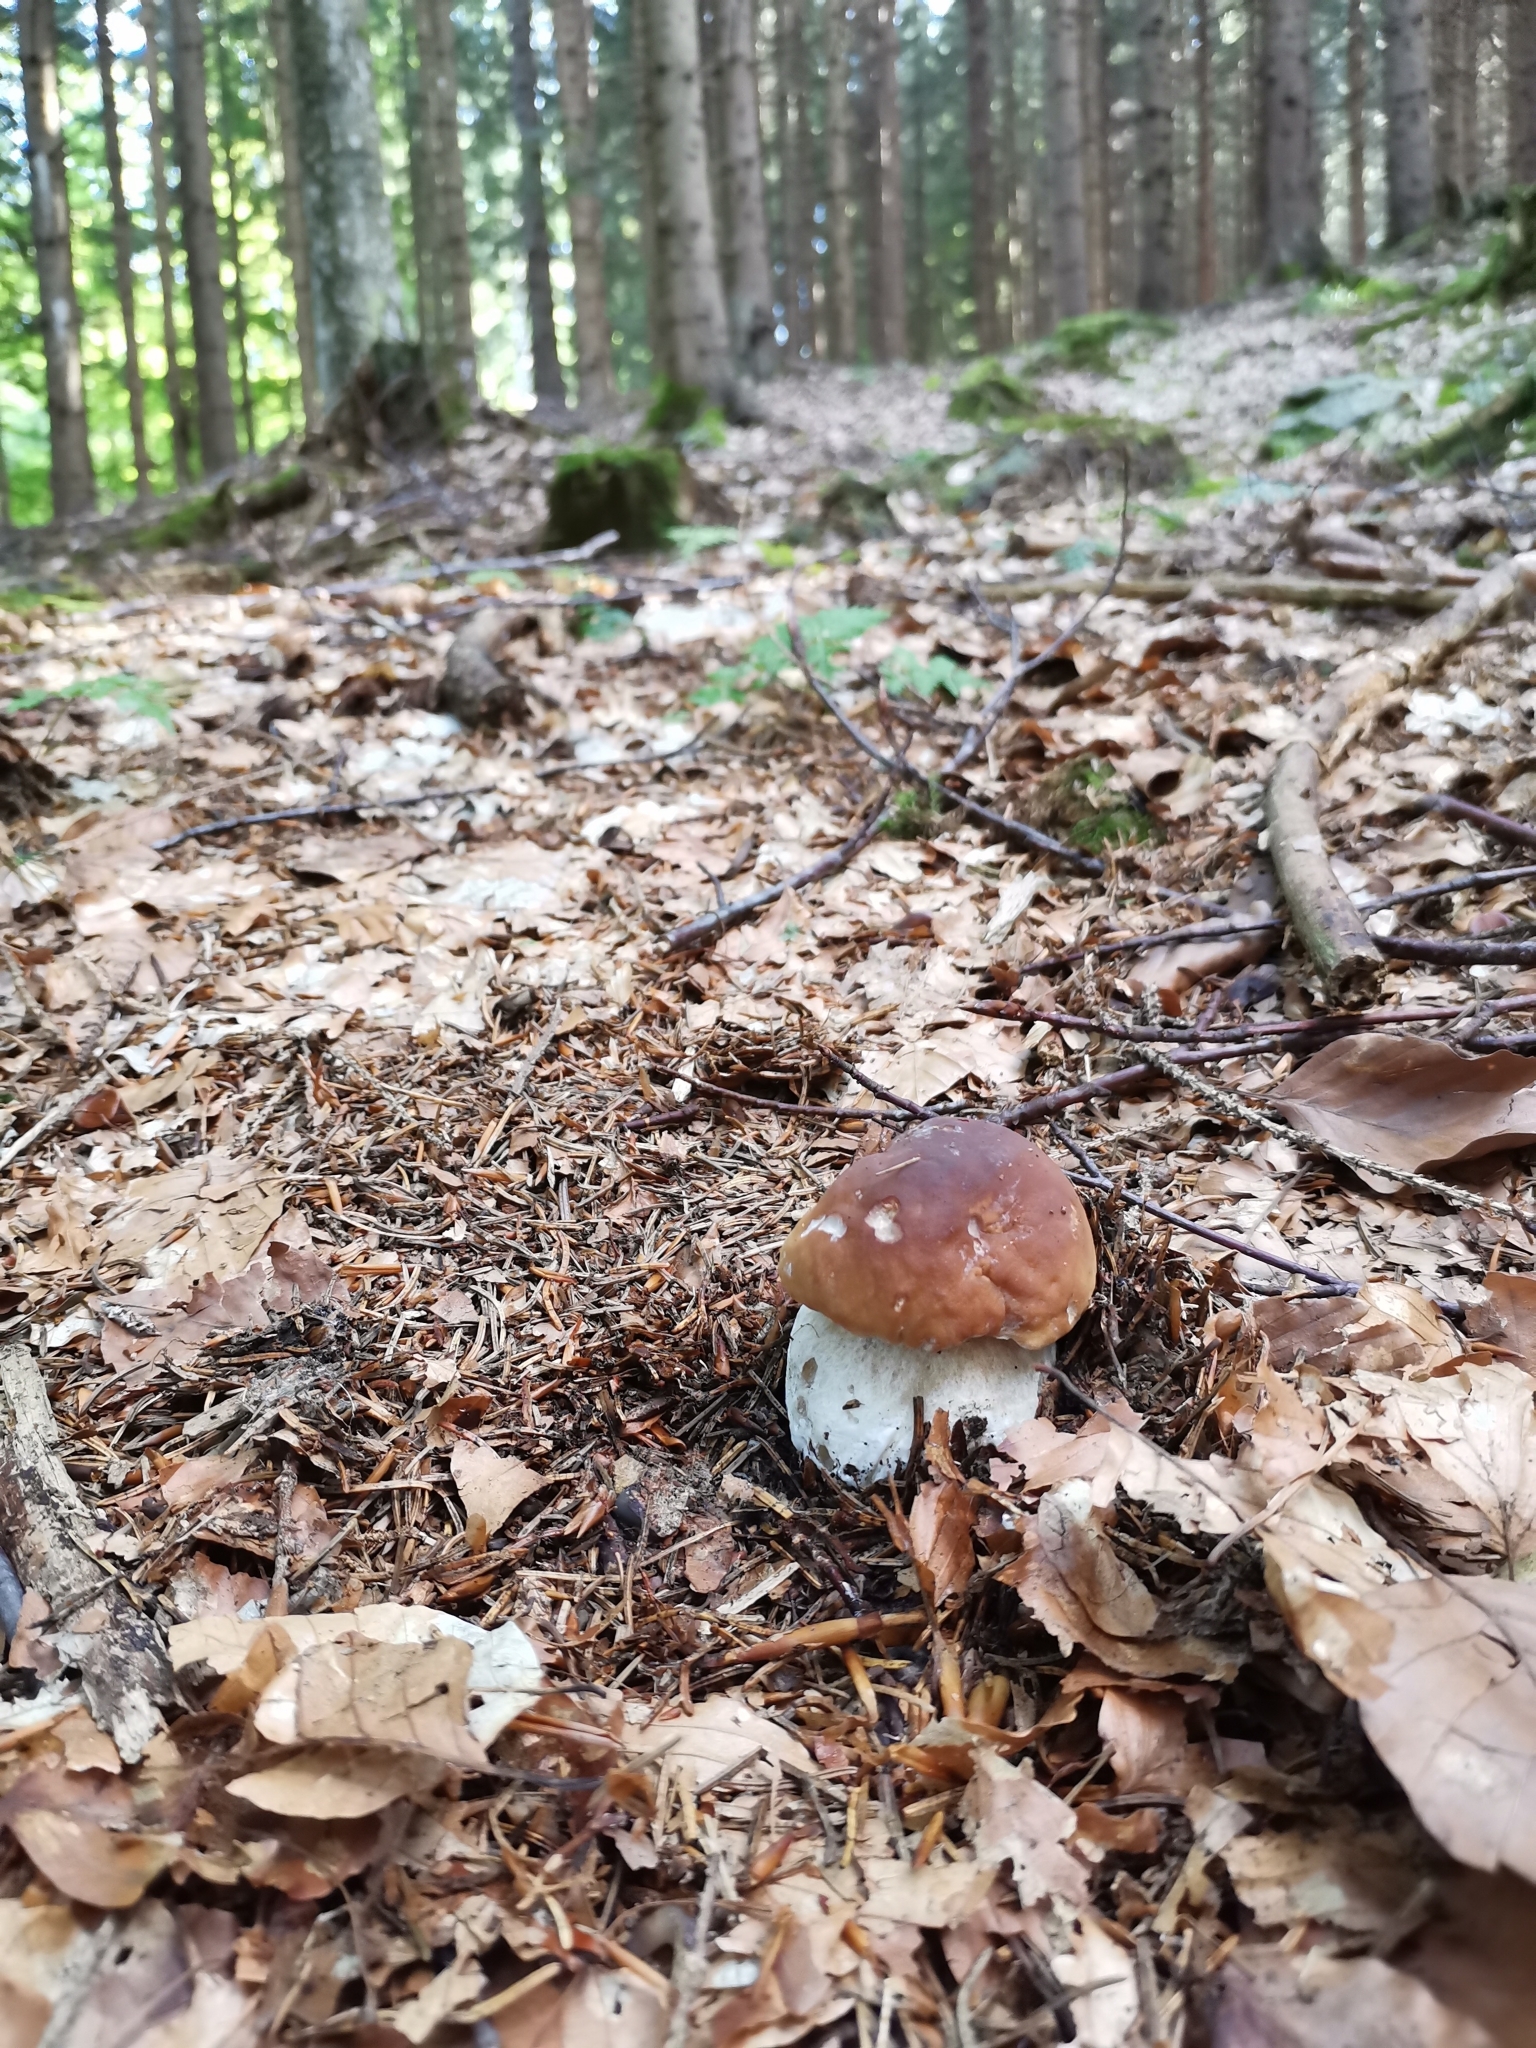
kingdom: Fungi
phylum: Basidiomycota
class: Agaricomycetes
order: Boletales
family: Boletaceae
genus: Boletus
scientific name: Boletus edulis
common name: Cep
